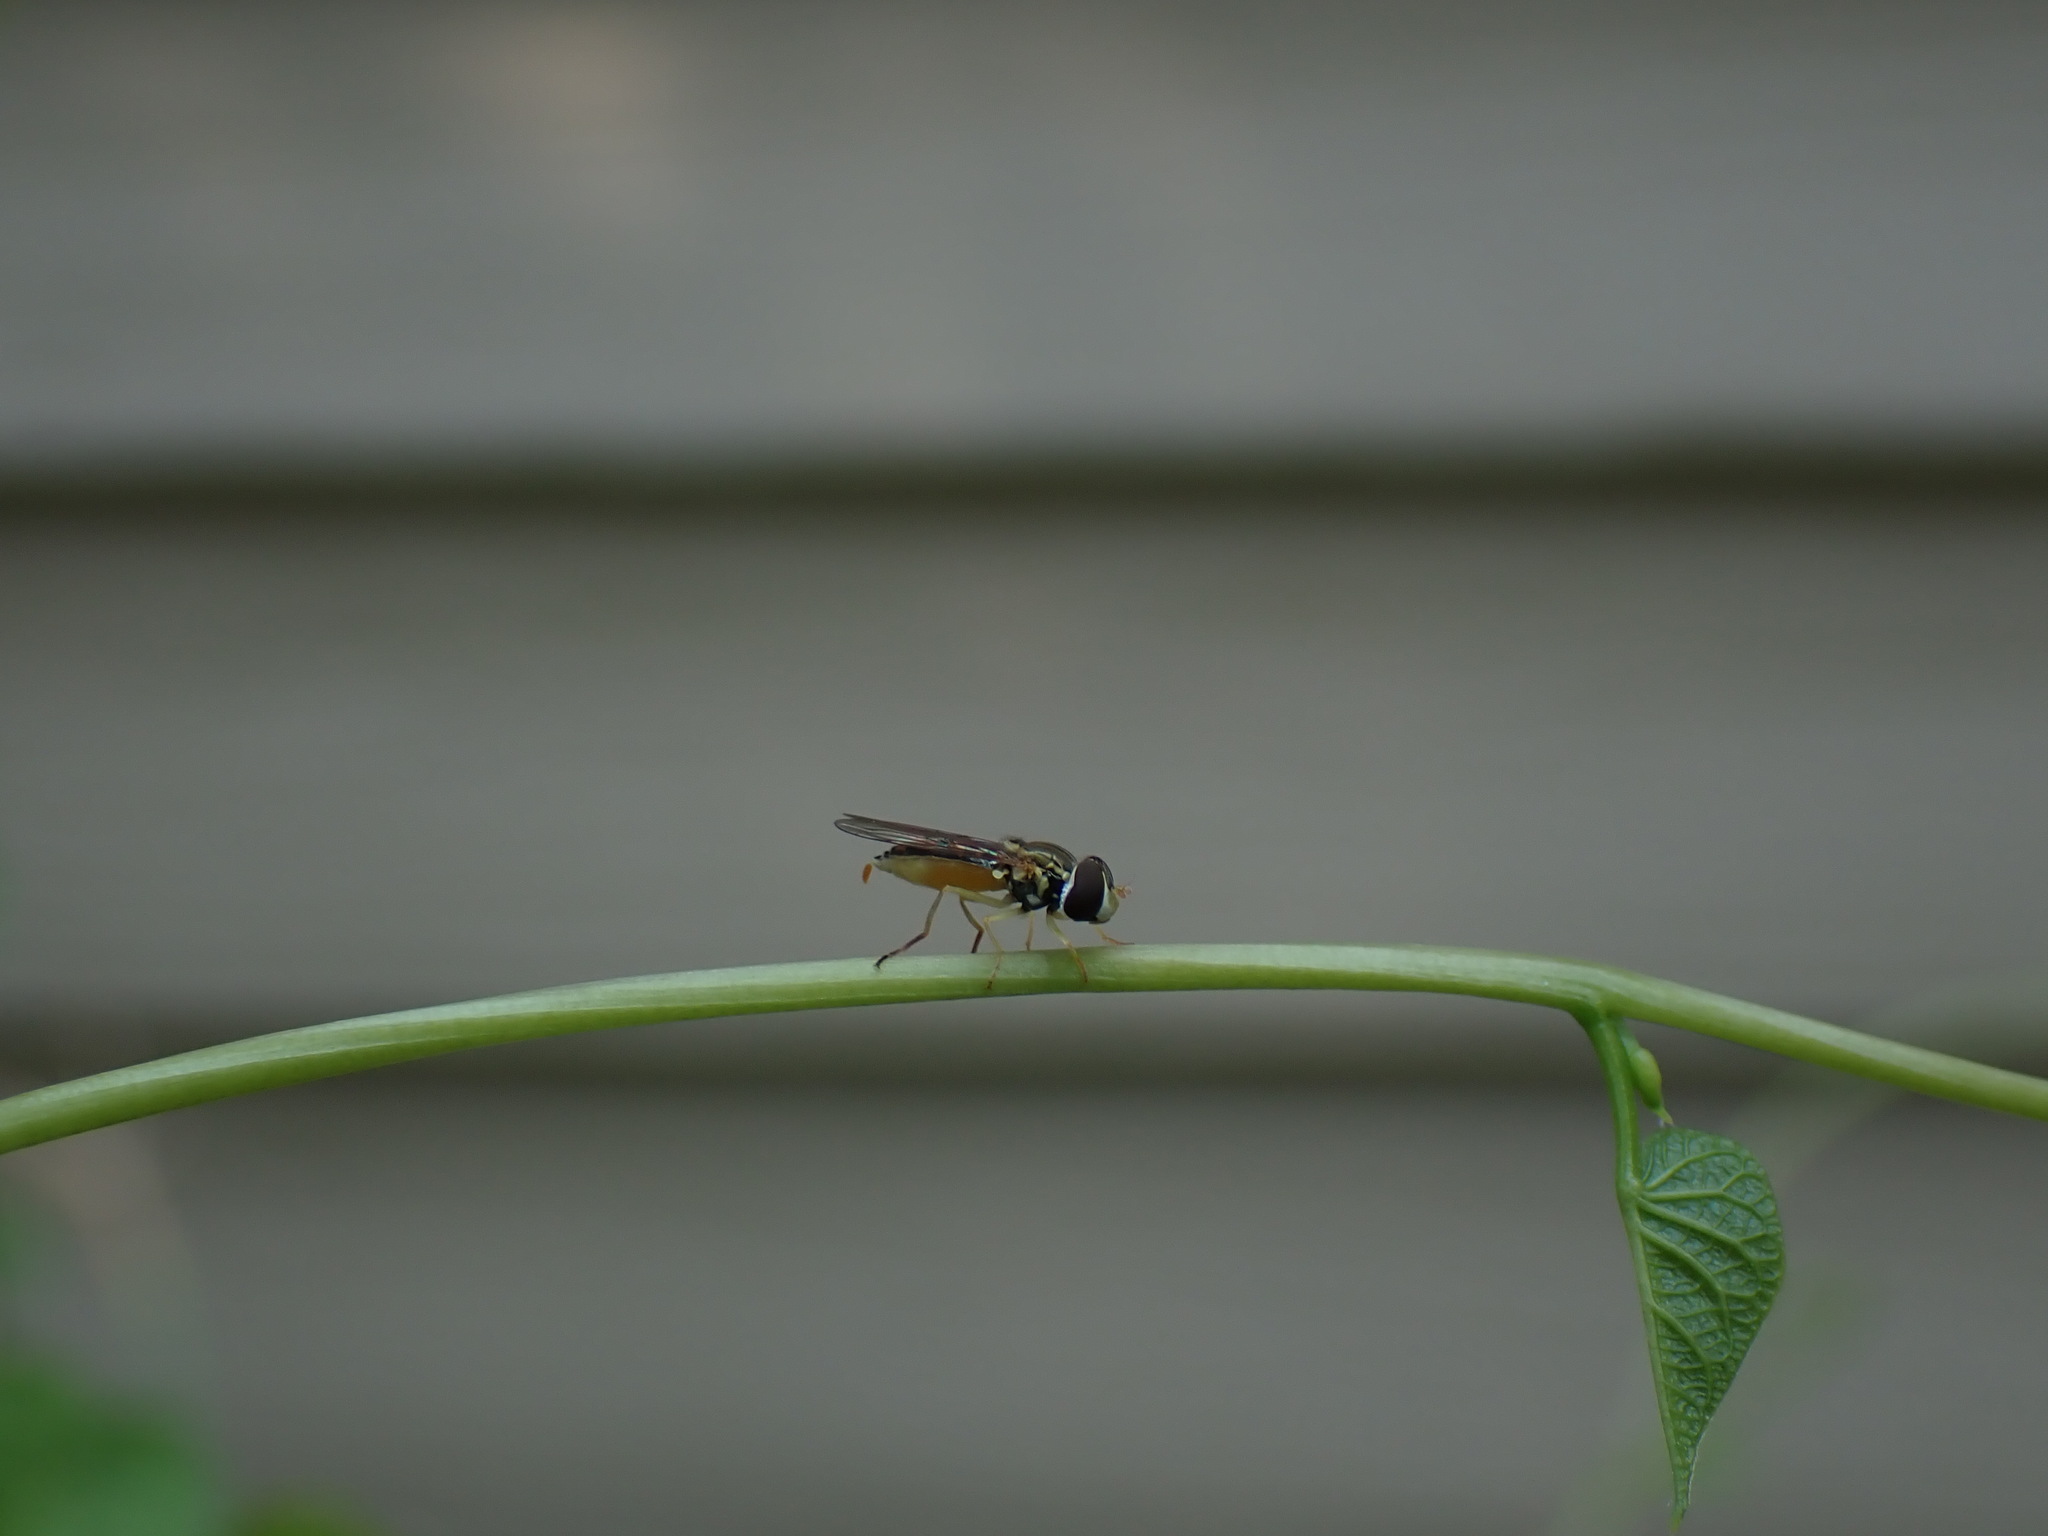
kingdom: Animalia
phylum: Arthropoda
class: Insecta
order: Diptera
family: Syrphidae
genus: Toxomerus
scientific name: Toxomerus marginatus
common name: Syrphid fly
